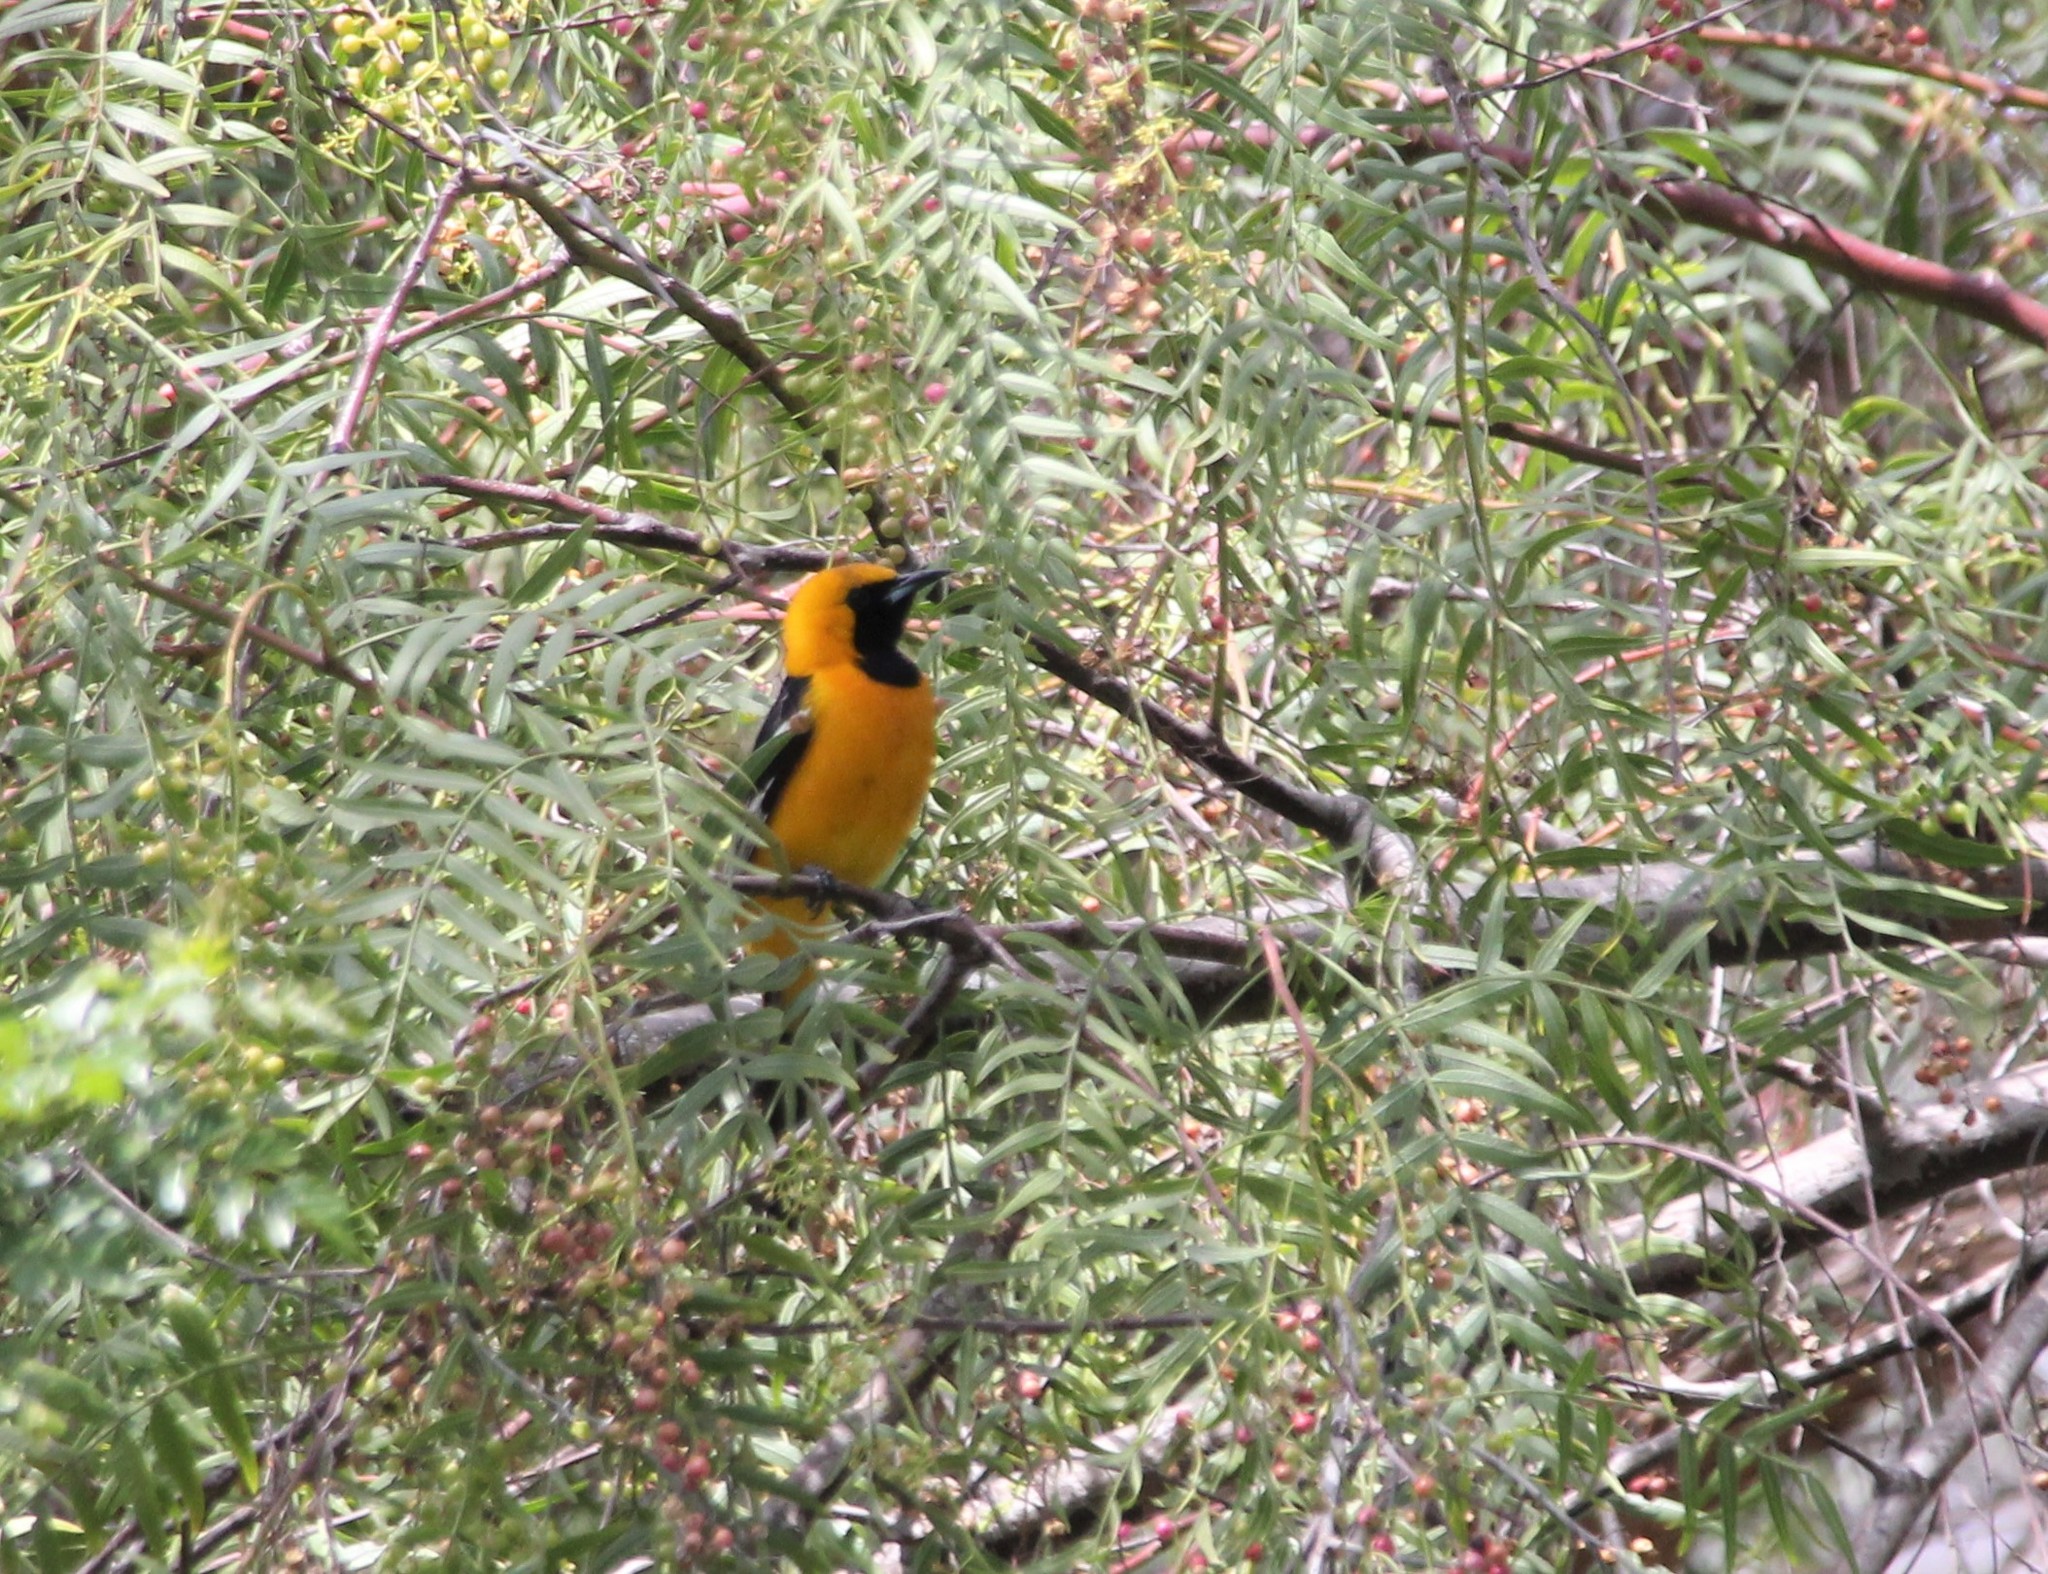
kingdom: Animalia
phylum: Chordata
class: Aves
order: Passeriformes
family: Icteridae
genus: Icterus
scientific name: Icterus cucullatus
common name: Hooded oriole
